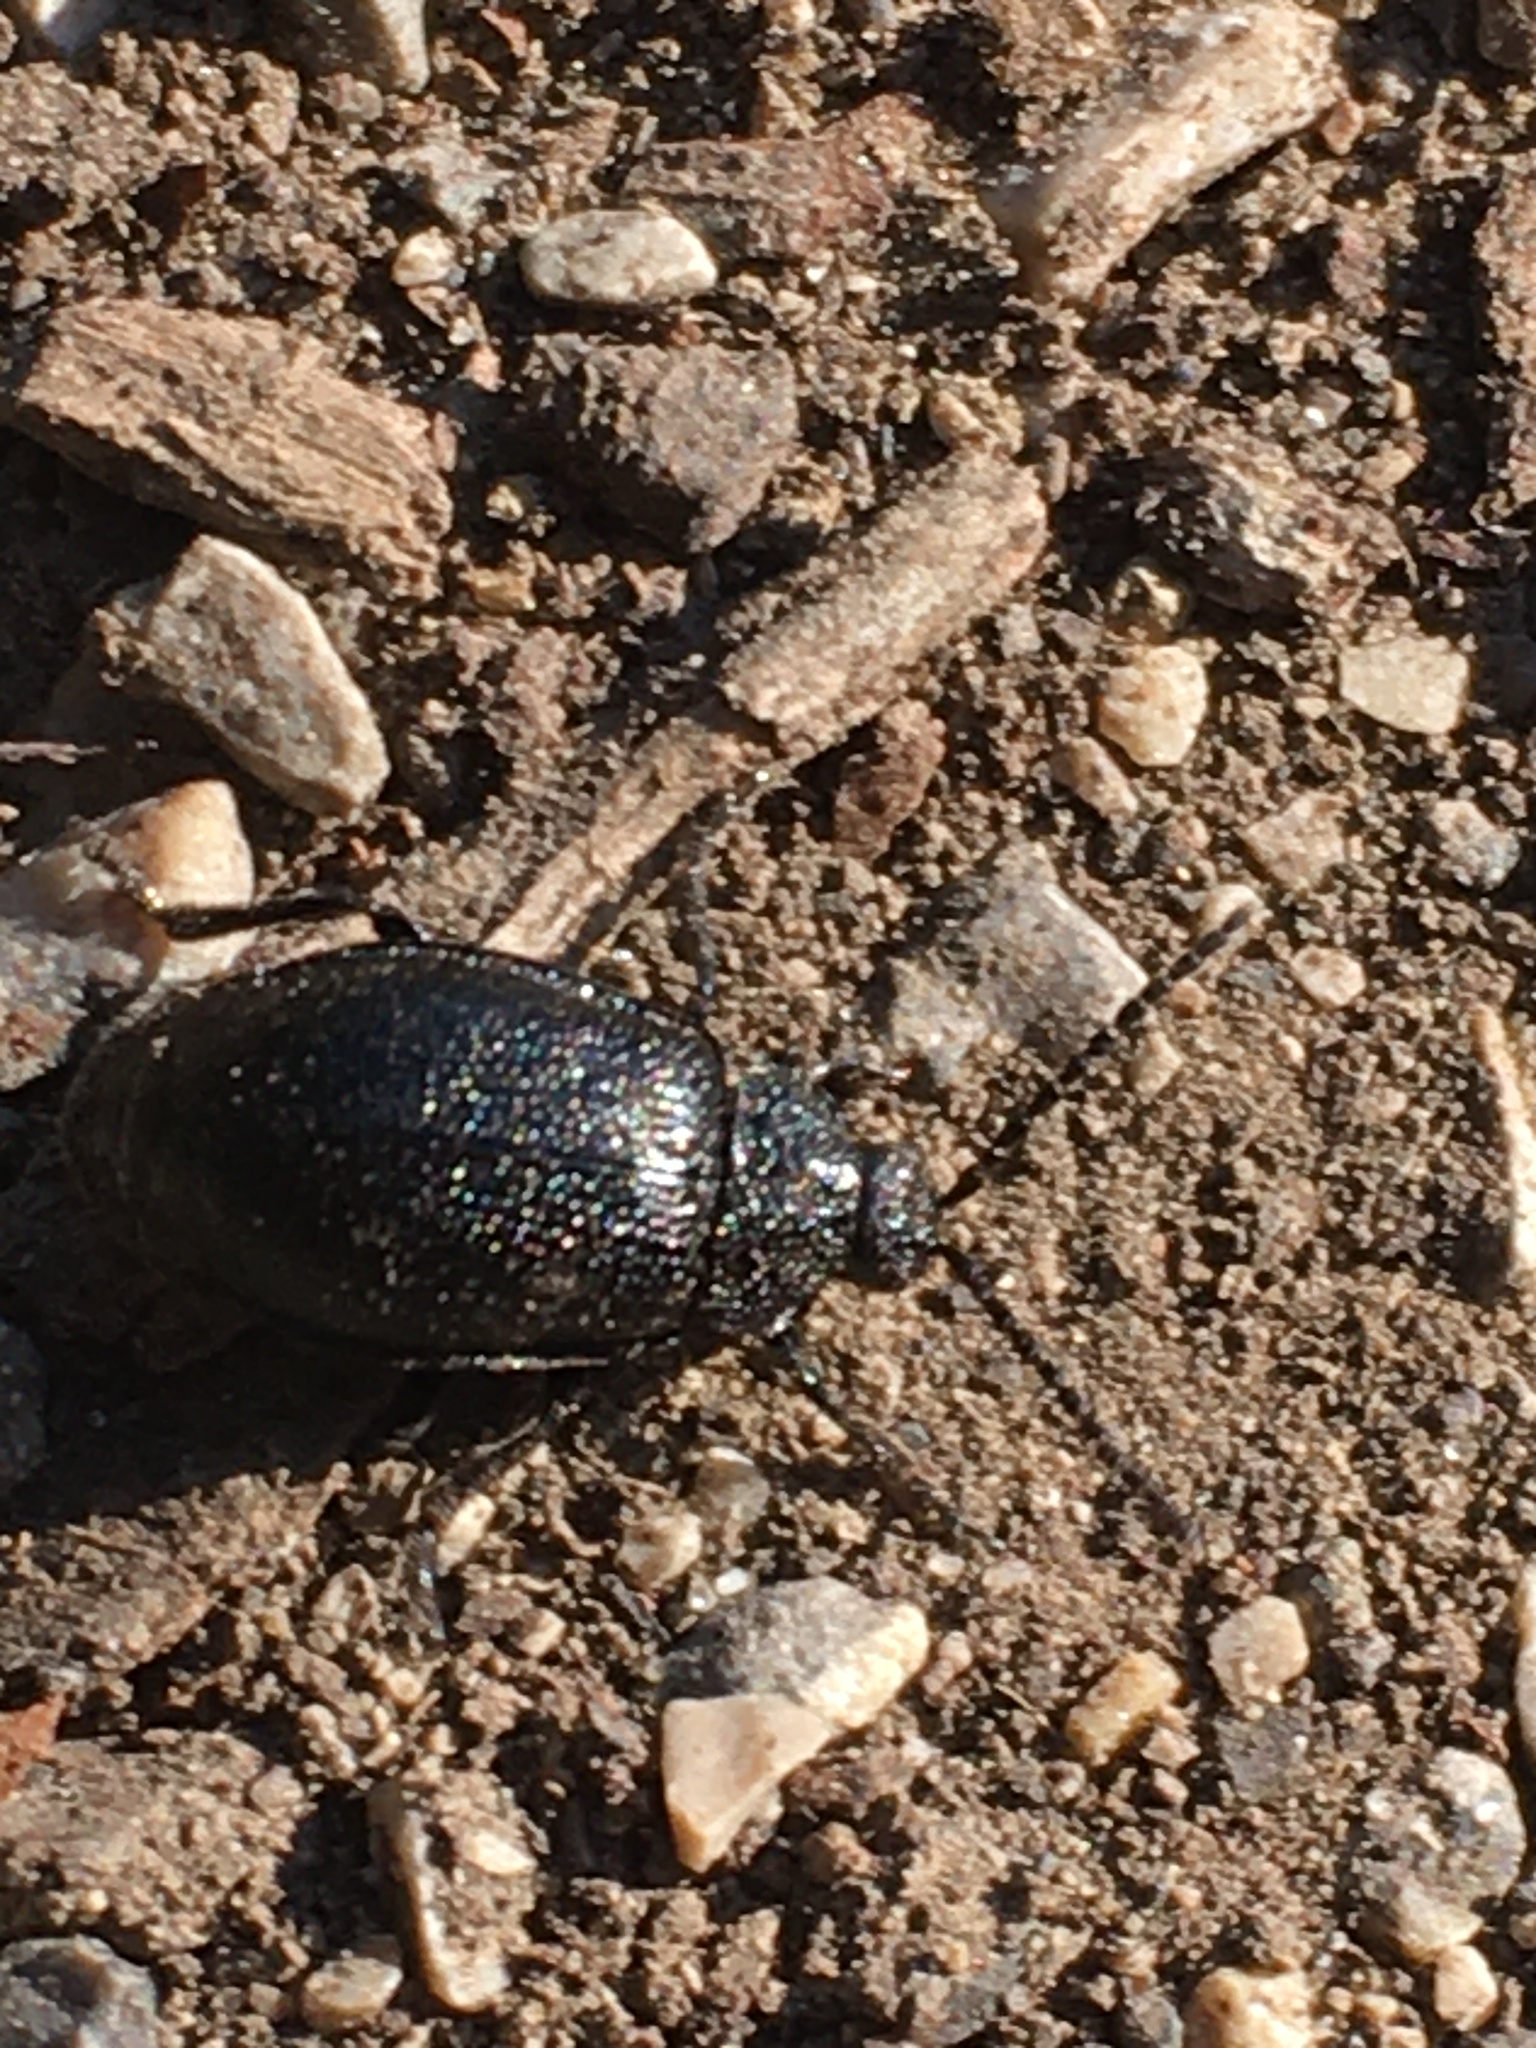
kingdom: Animalia
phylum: Arthropoda
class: Insecta
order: Coleoptera
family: Chrysomelidae
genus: Galeruca
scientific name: Galeruca tanaceti
